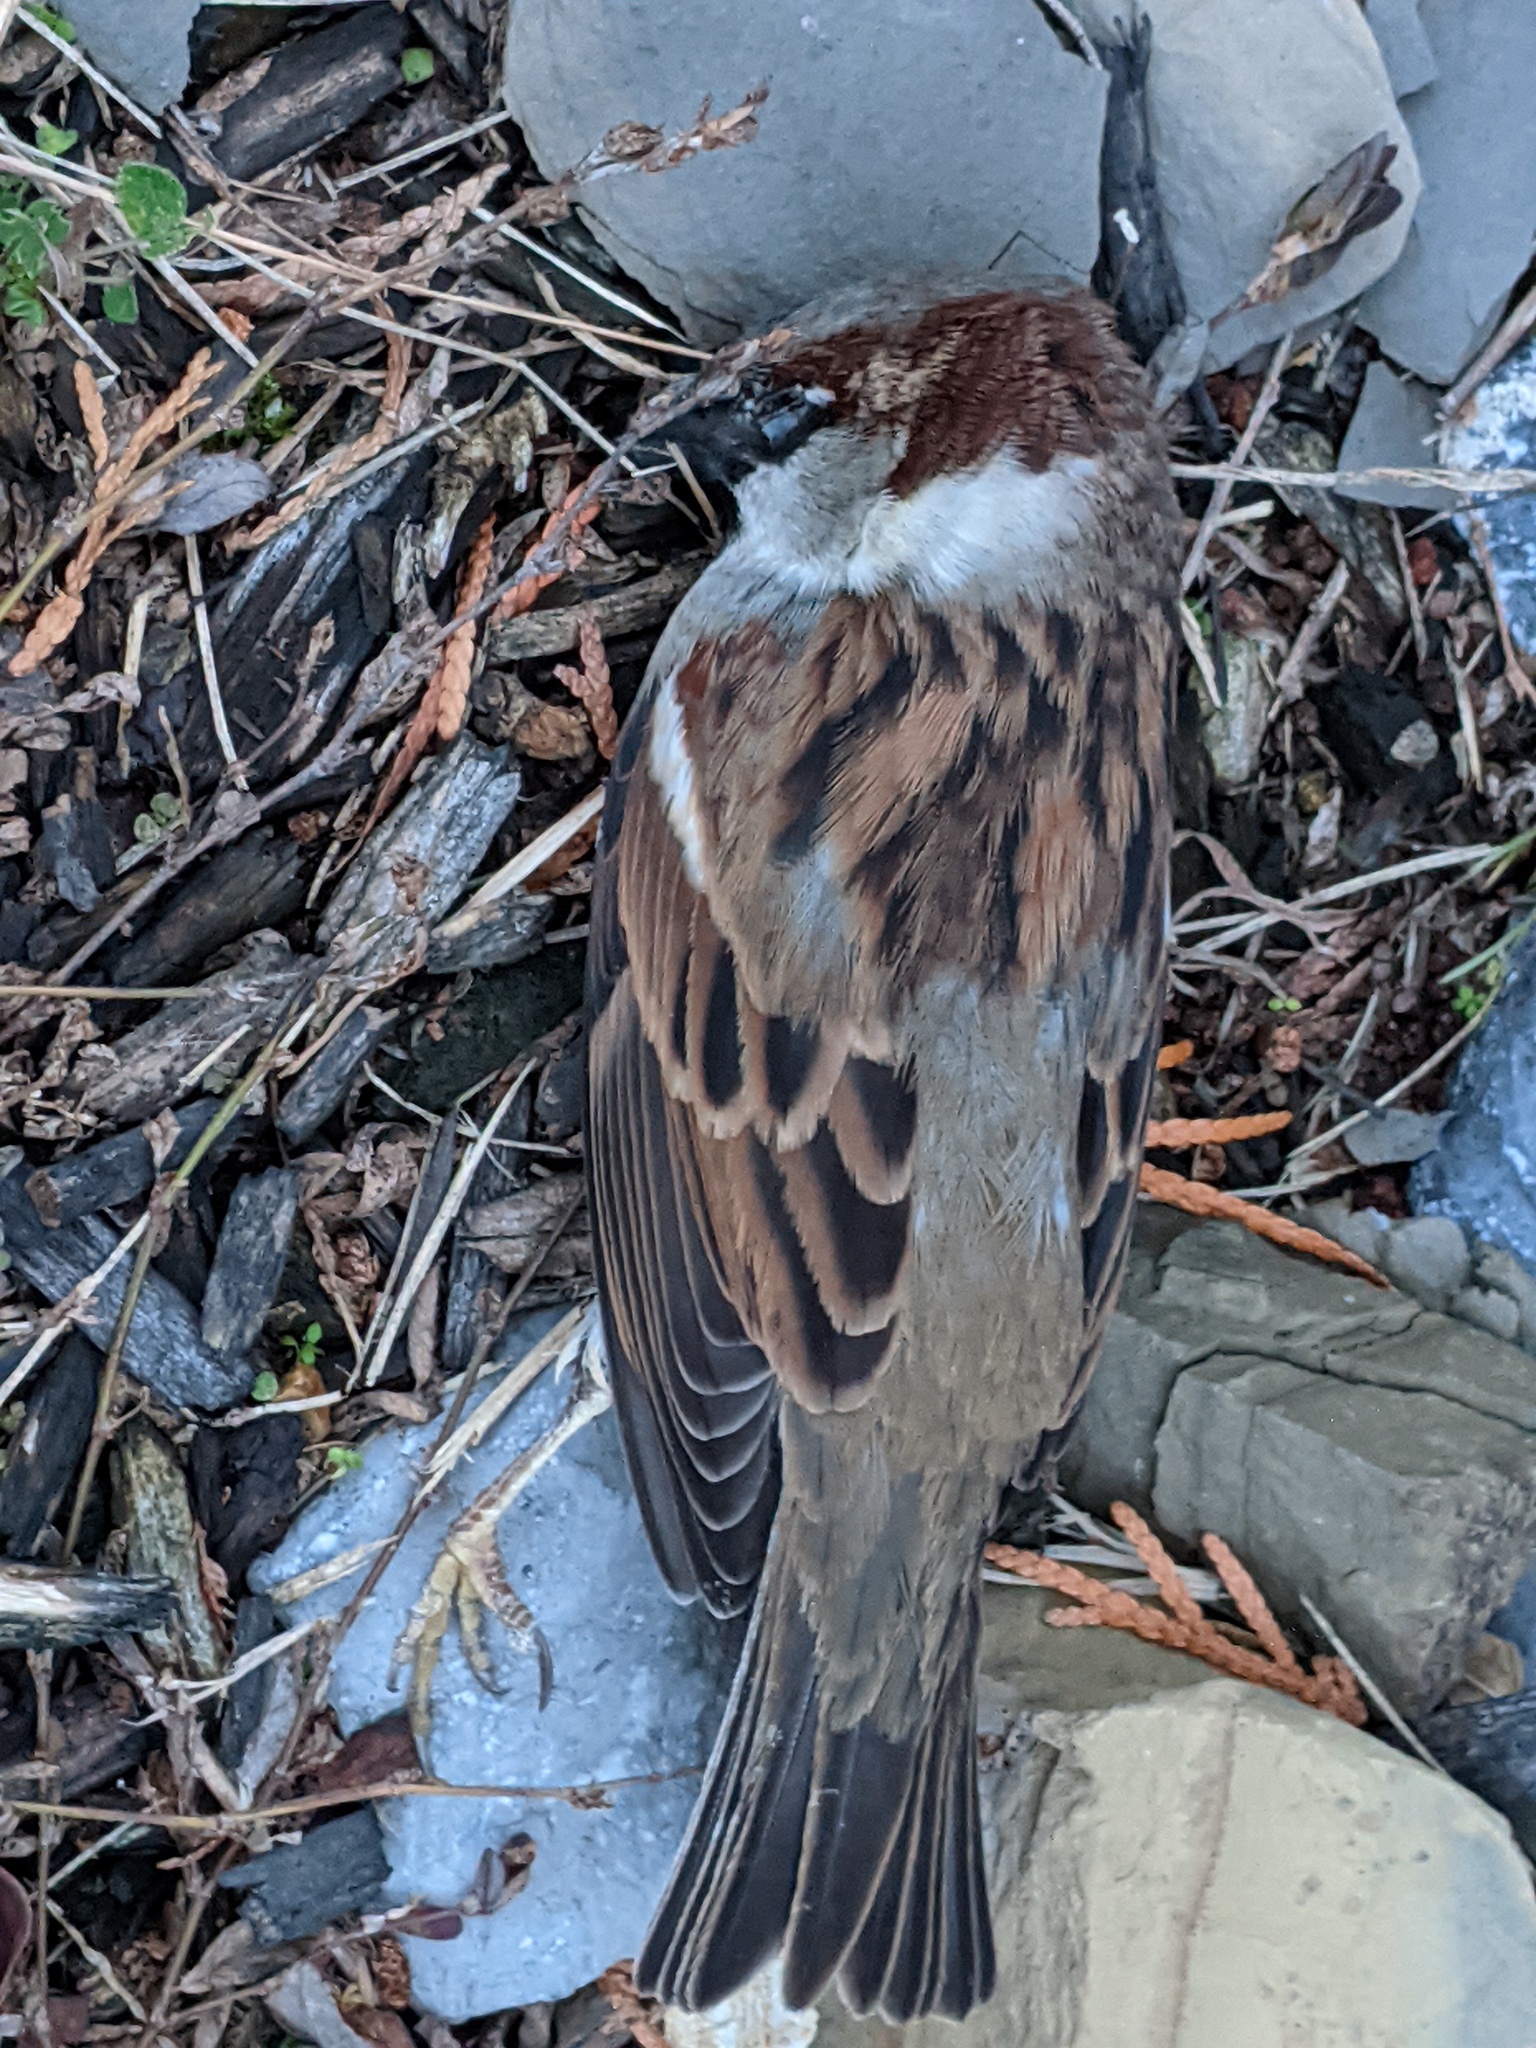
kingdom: Animalia
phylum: Chordata
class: Aves
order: Passeriformes
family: Passeridae
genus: Passer
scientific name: Passer domesticus
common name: House sparrow
